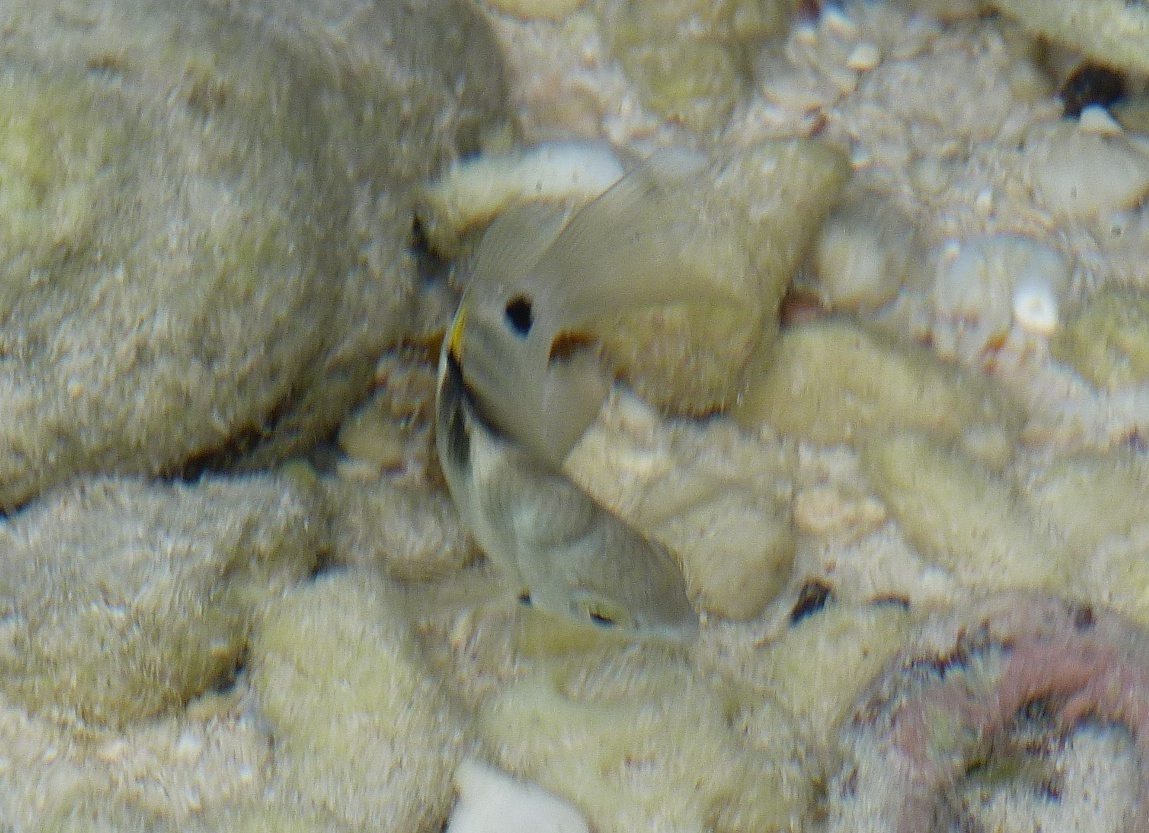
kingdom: Animalia
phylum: Chordata
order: Perciformes
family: Pomacentridae
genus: Abudefduf
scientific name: Abudefduf sordidus
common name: Blackspot sergeant
